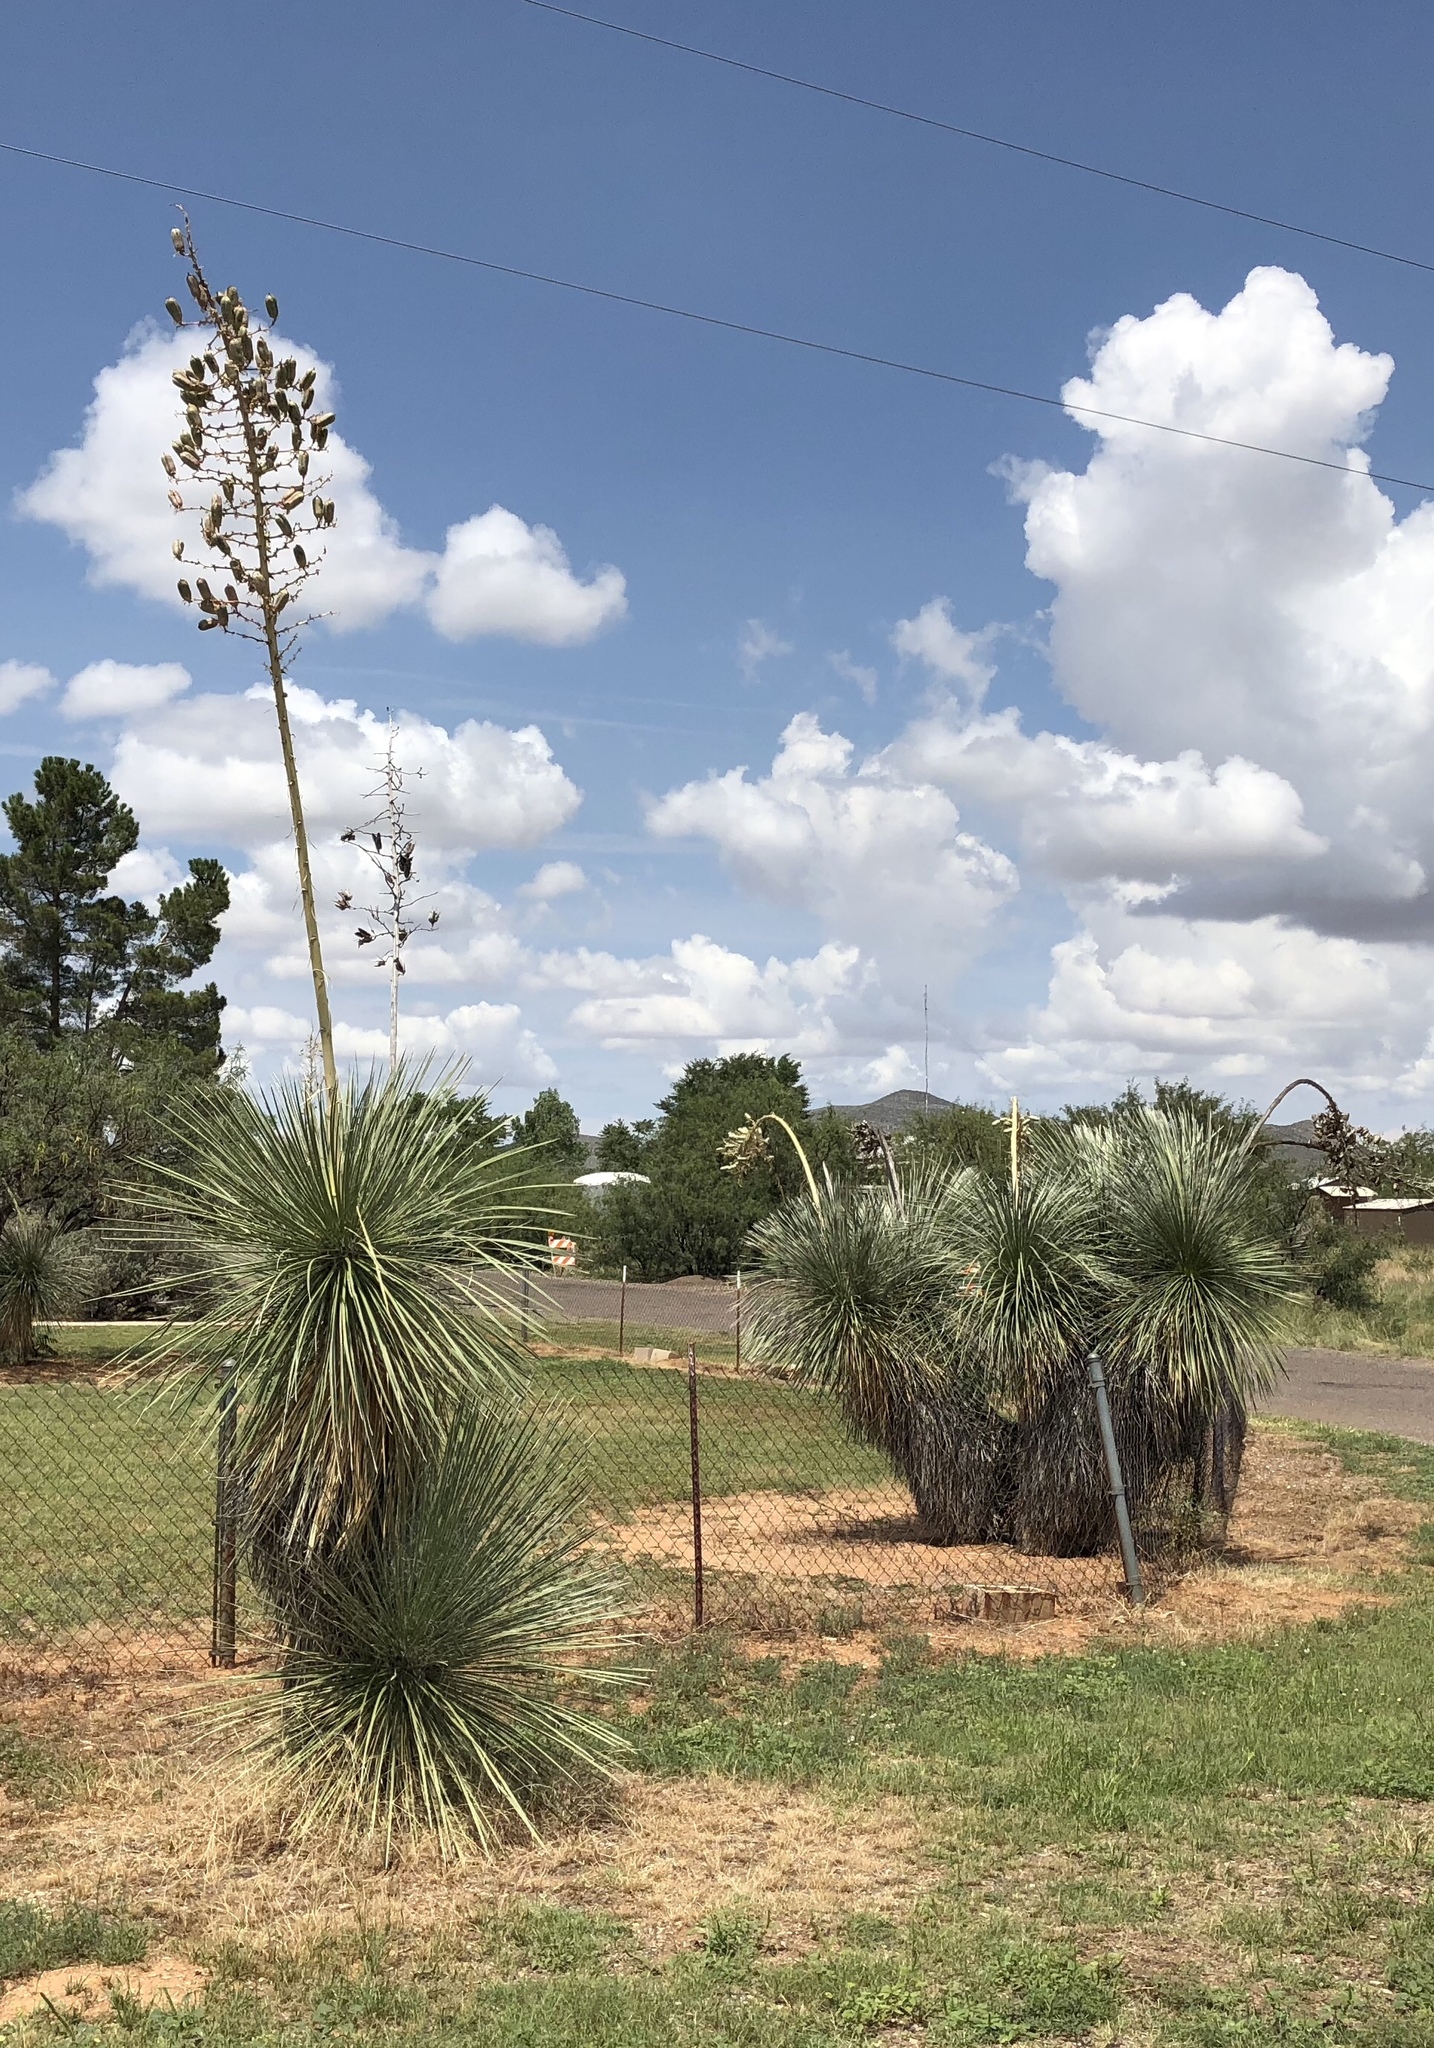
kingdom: Plantae
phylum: Tracheophyta
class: Liliopsida
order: Asparagales
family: Asparagaceae
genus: Yucca
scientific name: Yucca elata
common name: Palmella
